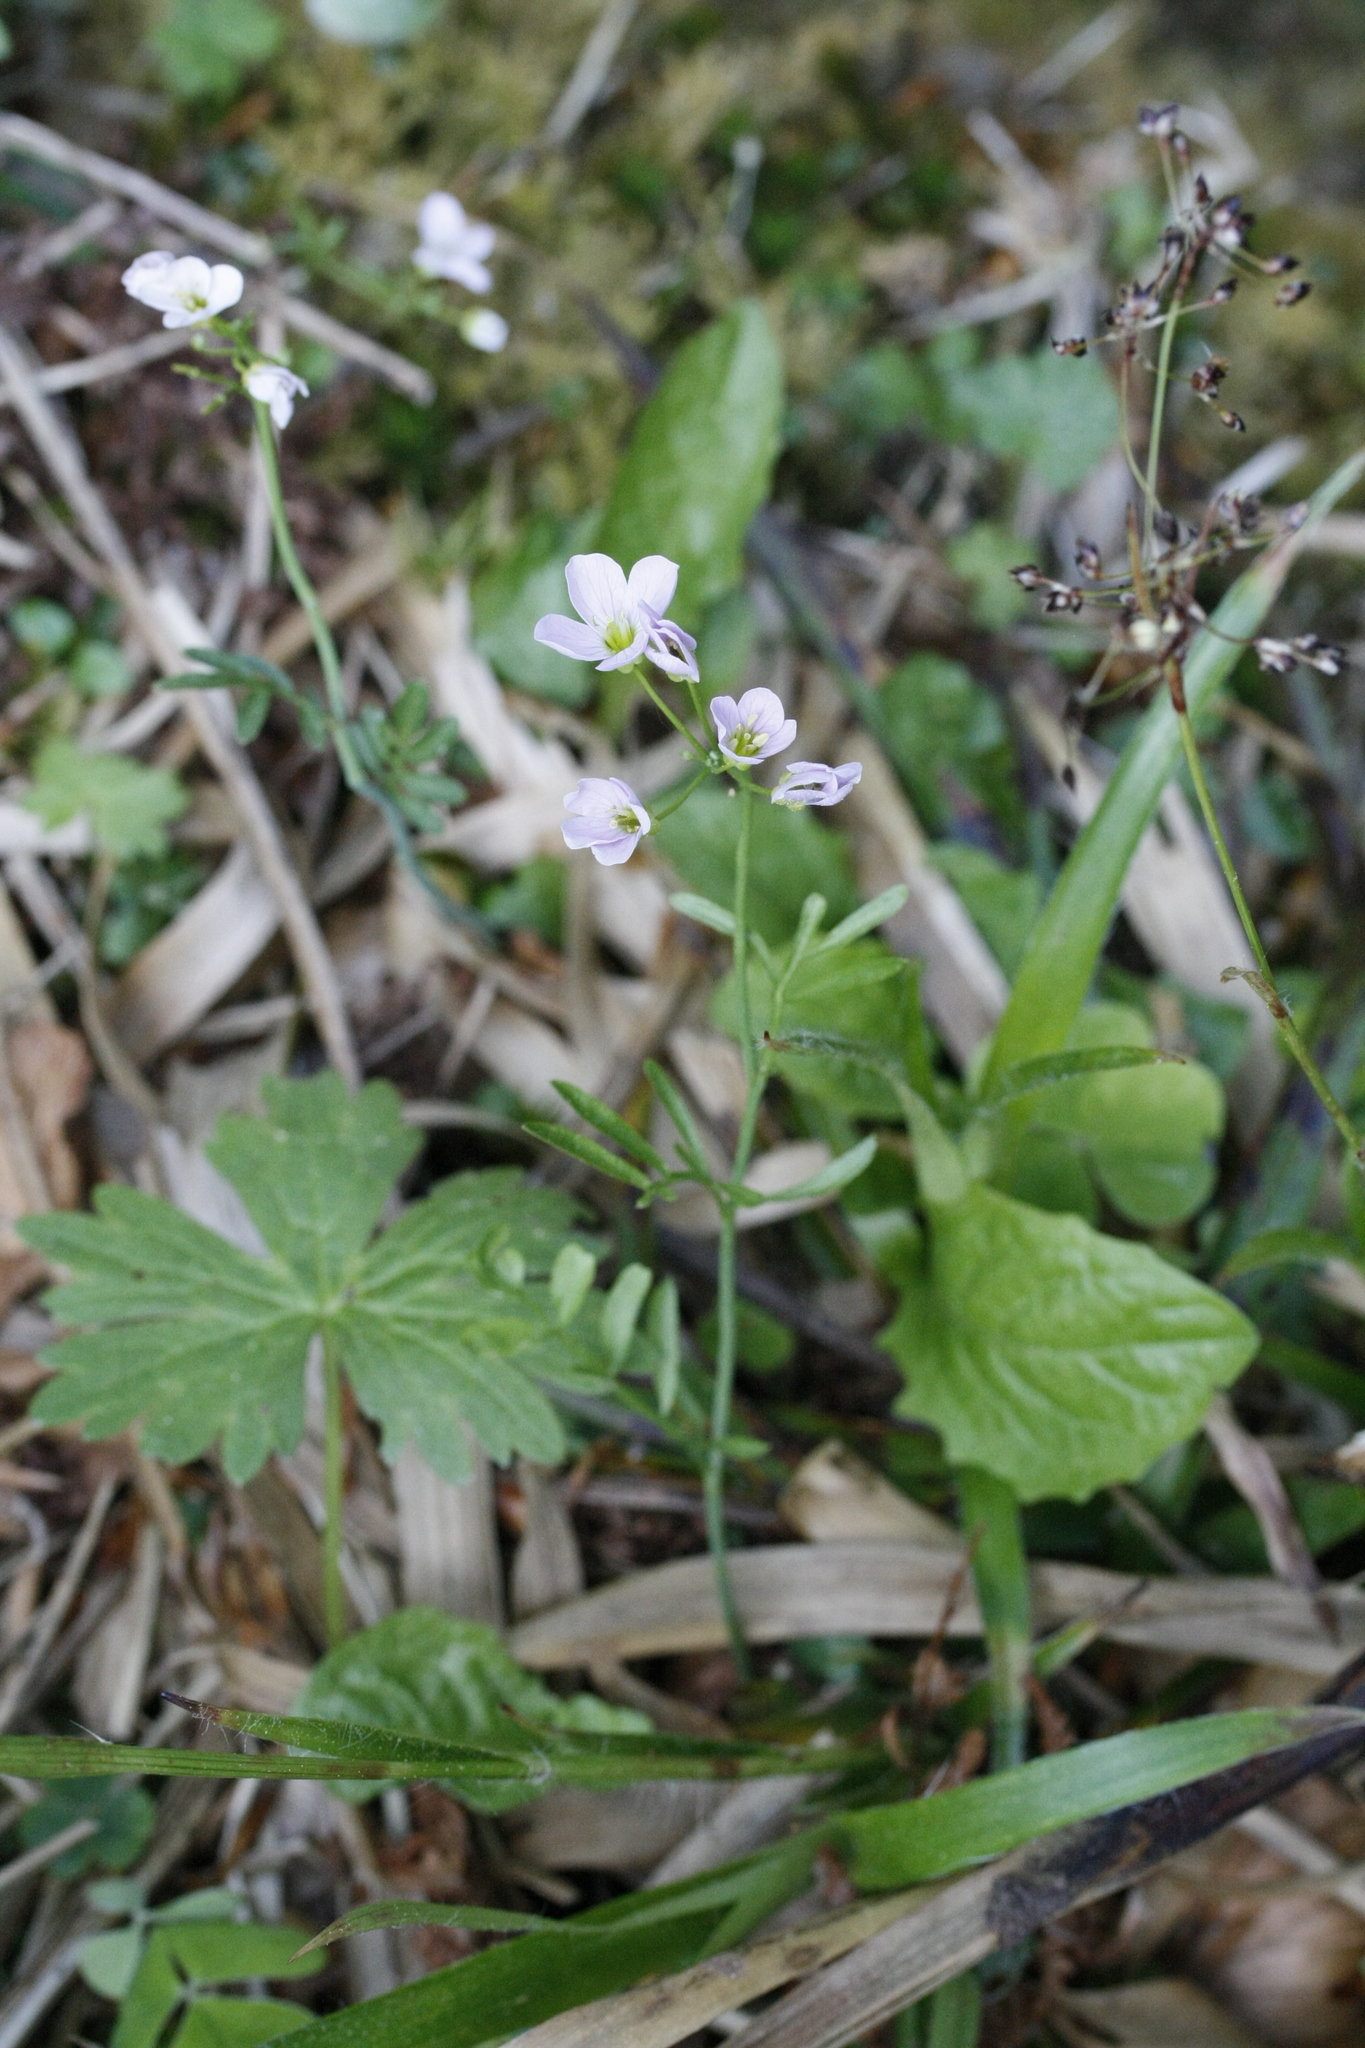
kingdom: Plantae
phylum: Tracheophyta
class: Magnoliopsida
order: Brassicales
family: Brassicaceae
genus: Cardamine
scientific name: Cardamine pratensis
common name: Cuckoo flower
